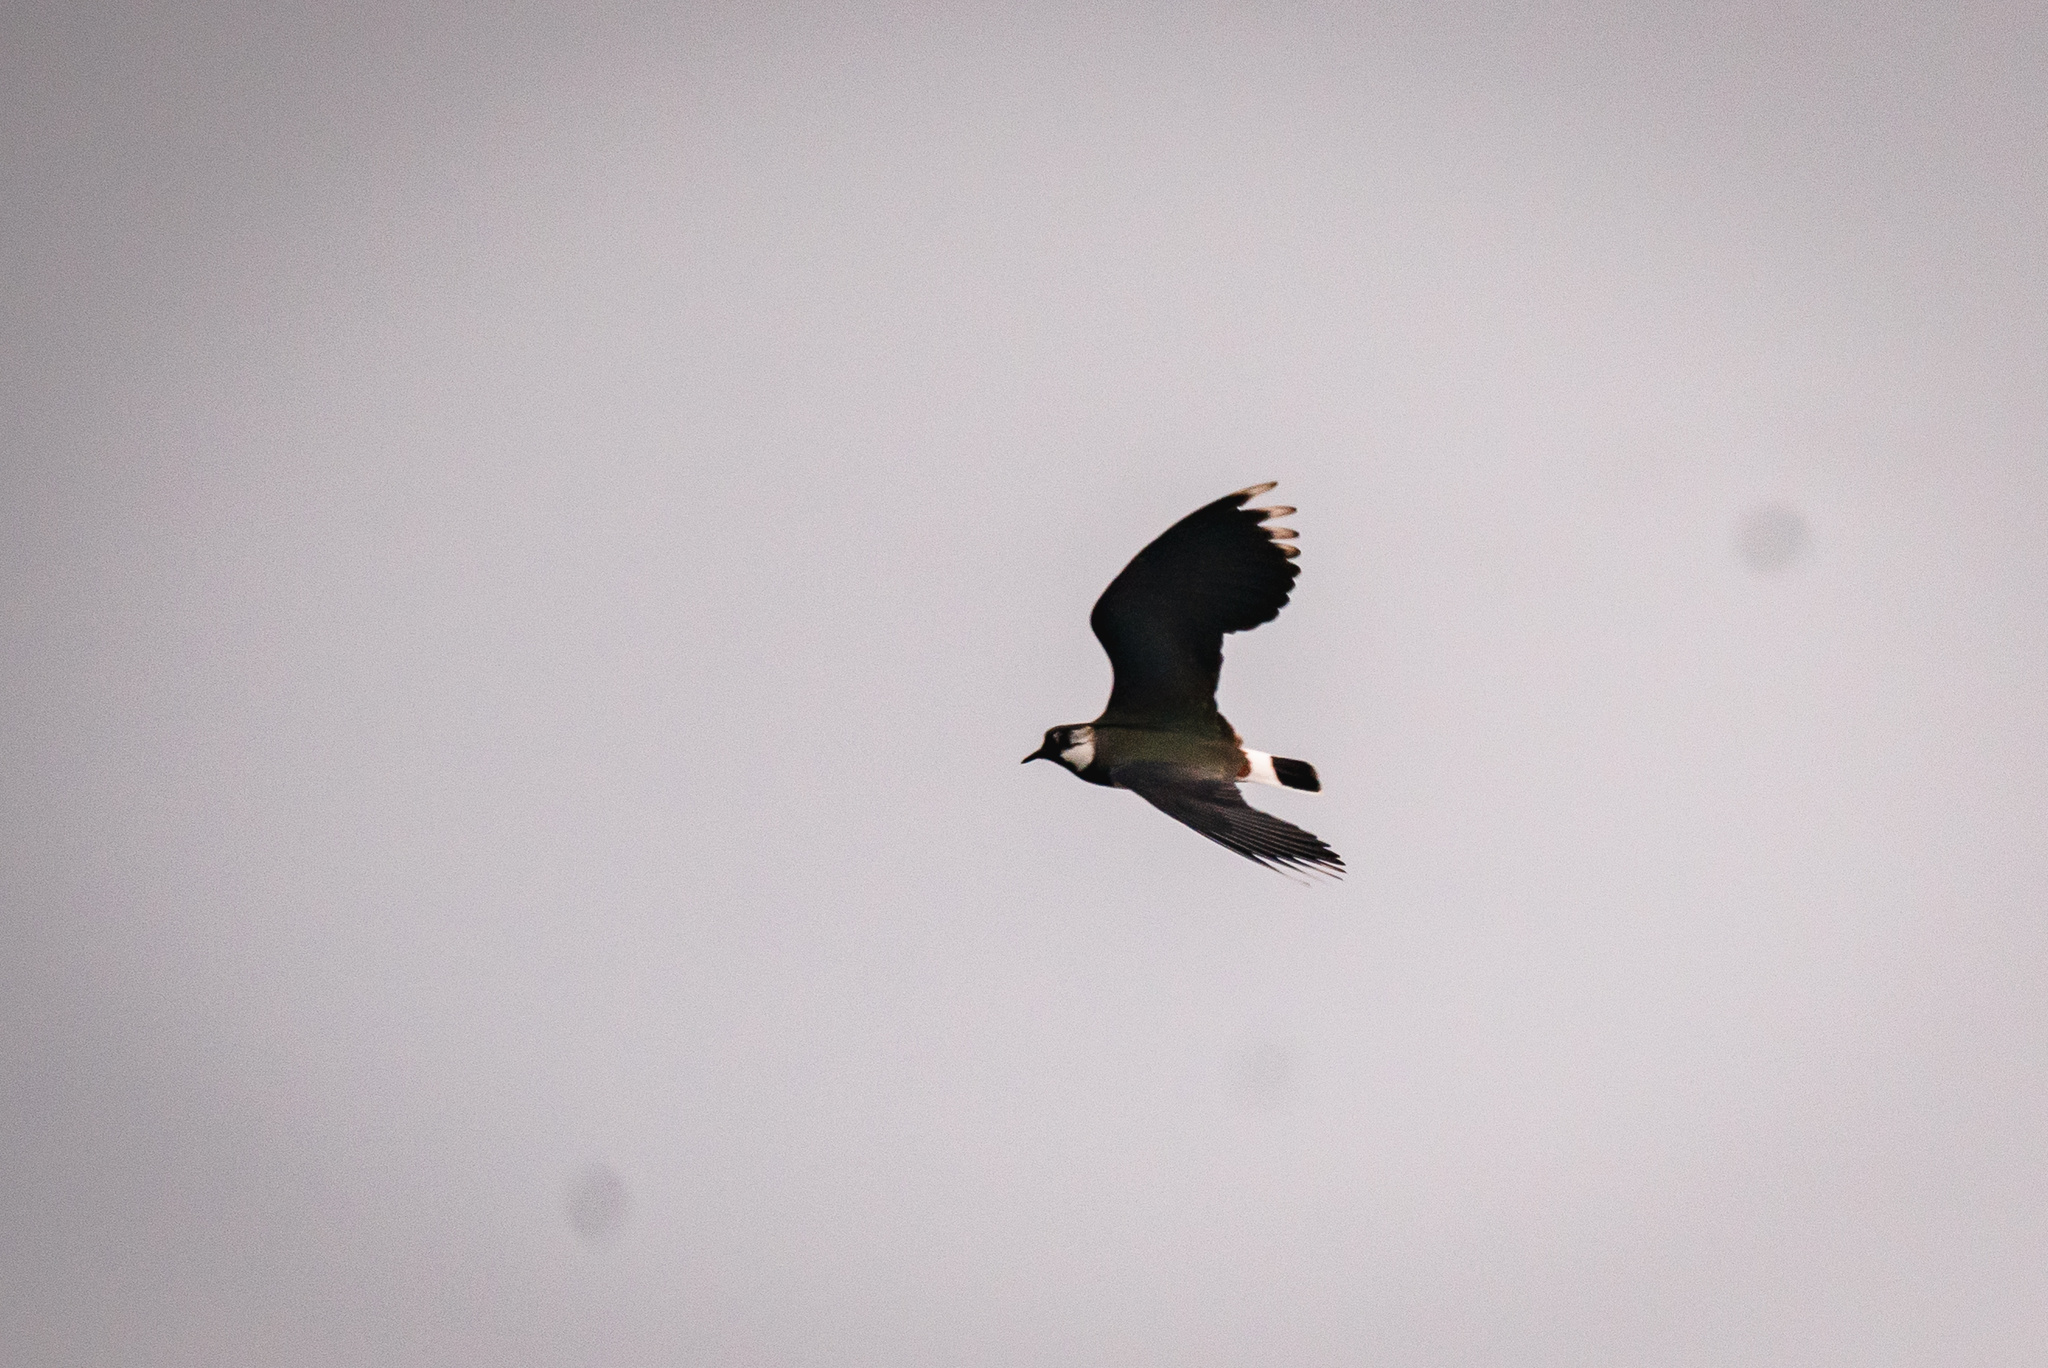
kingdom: Animalia
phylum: Chordata
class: Aves
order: Charadriiformes
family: Charadriidae
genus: Vanellus
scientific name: Vanellus vanellus
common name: Northern lapwing
